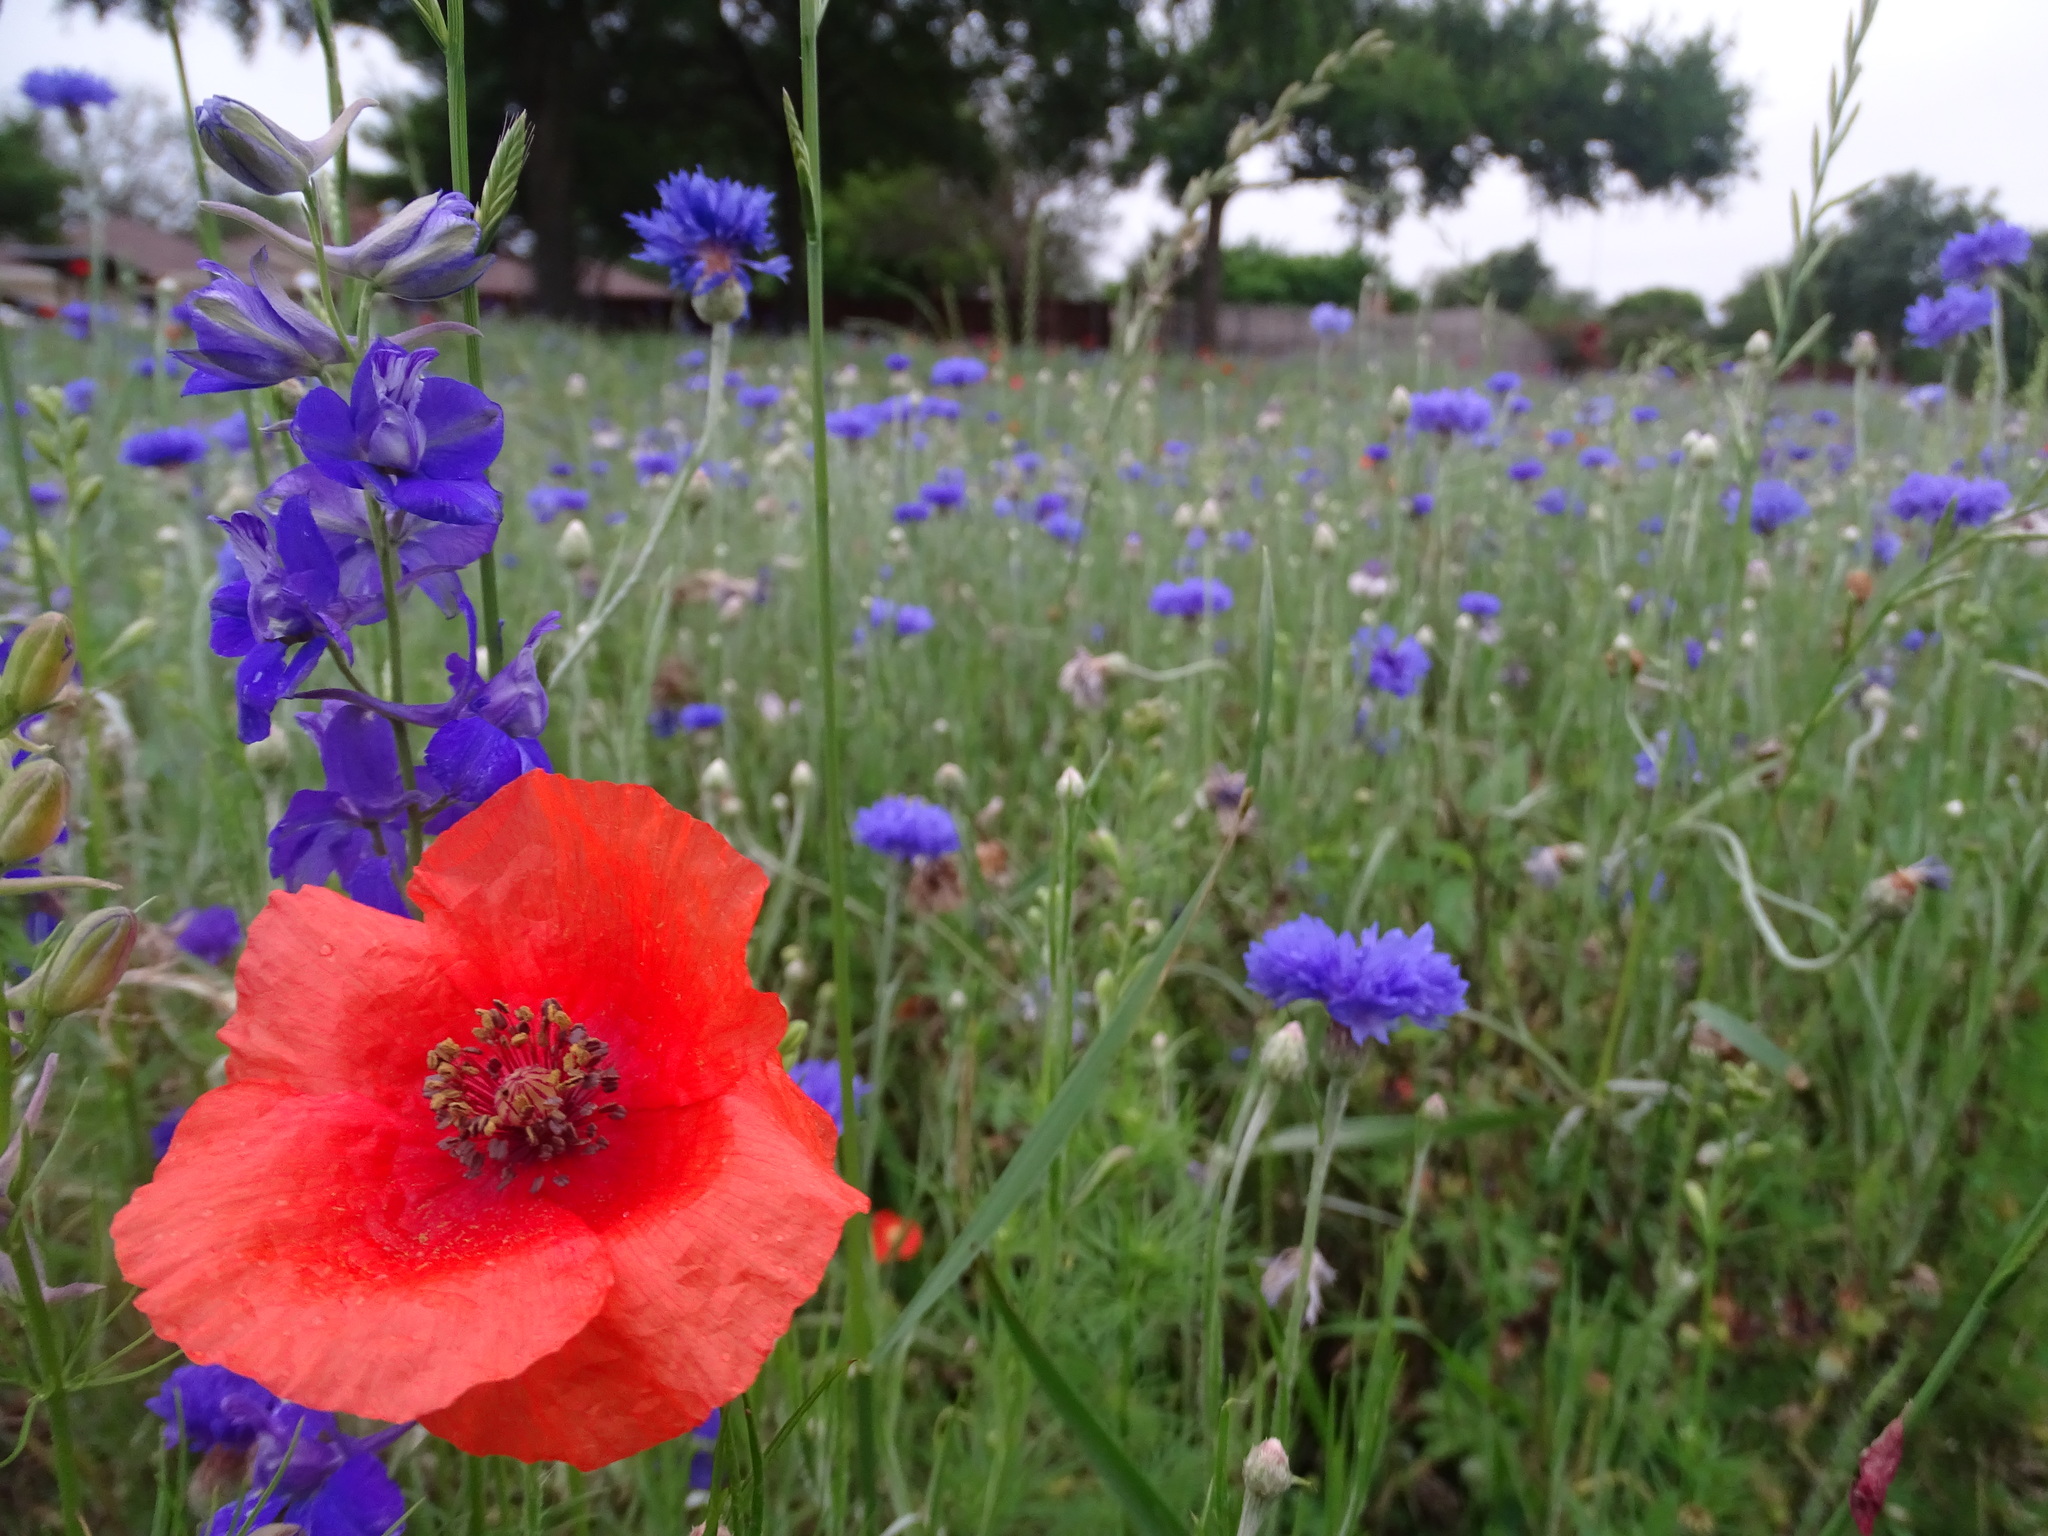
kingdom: Plantae
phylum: Tracheophyta
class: Magnoliopsida
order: Ranunculales
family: Papaveraceae
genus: Papaver
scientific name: Papaver rhoeas
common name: Corn poppy
